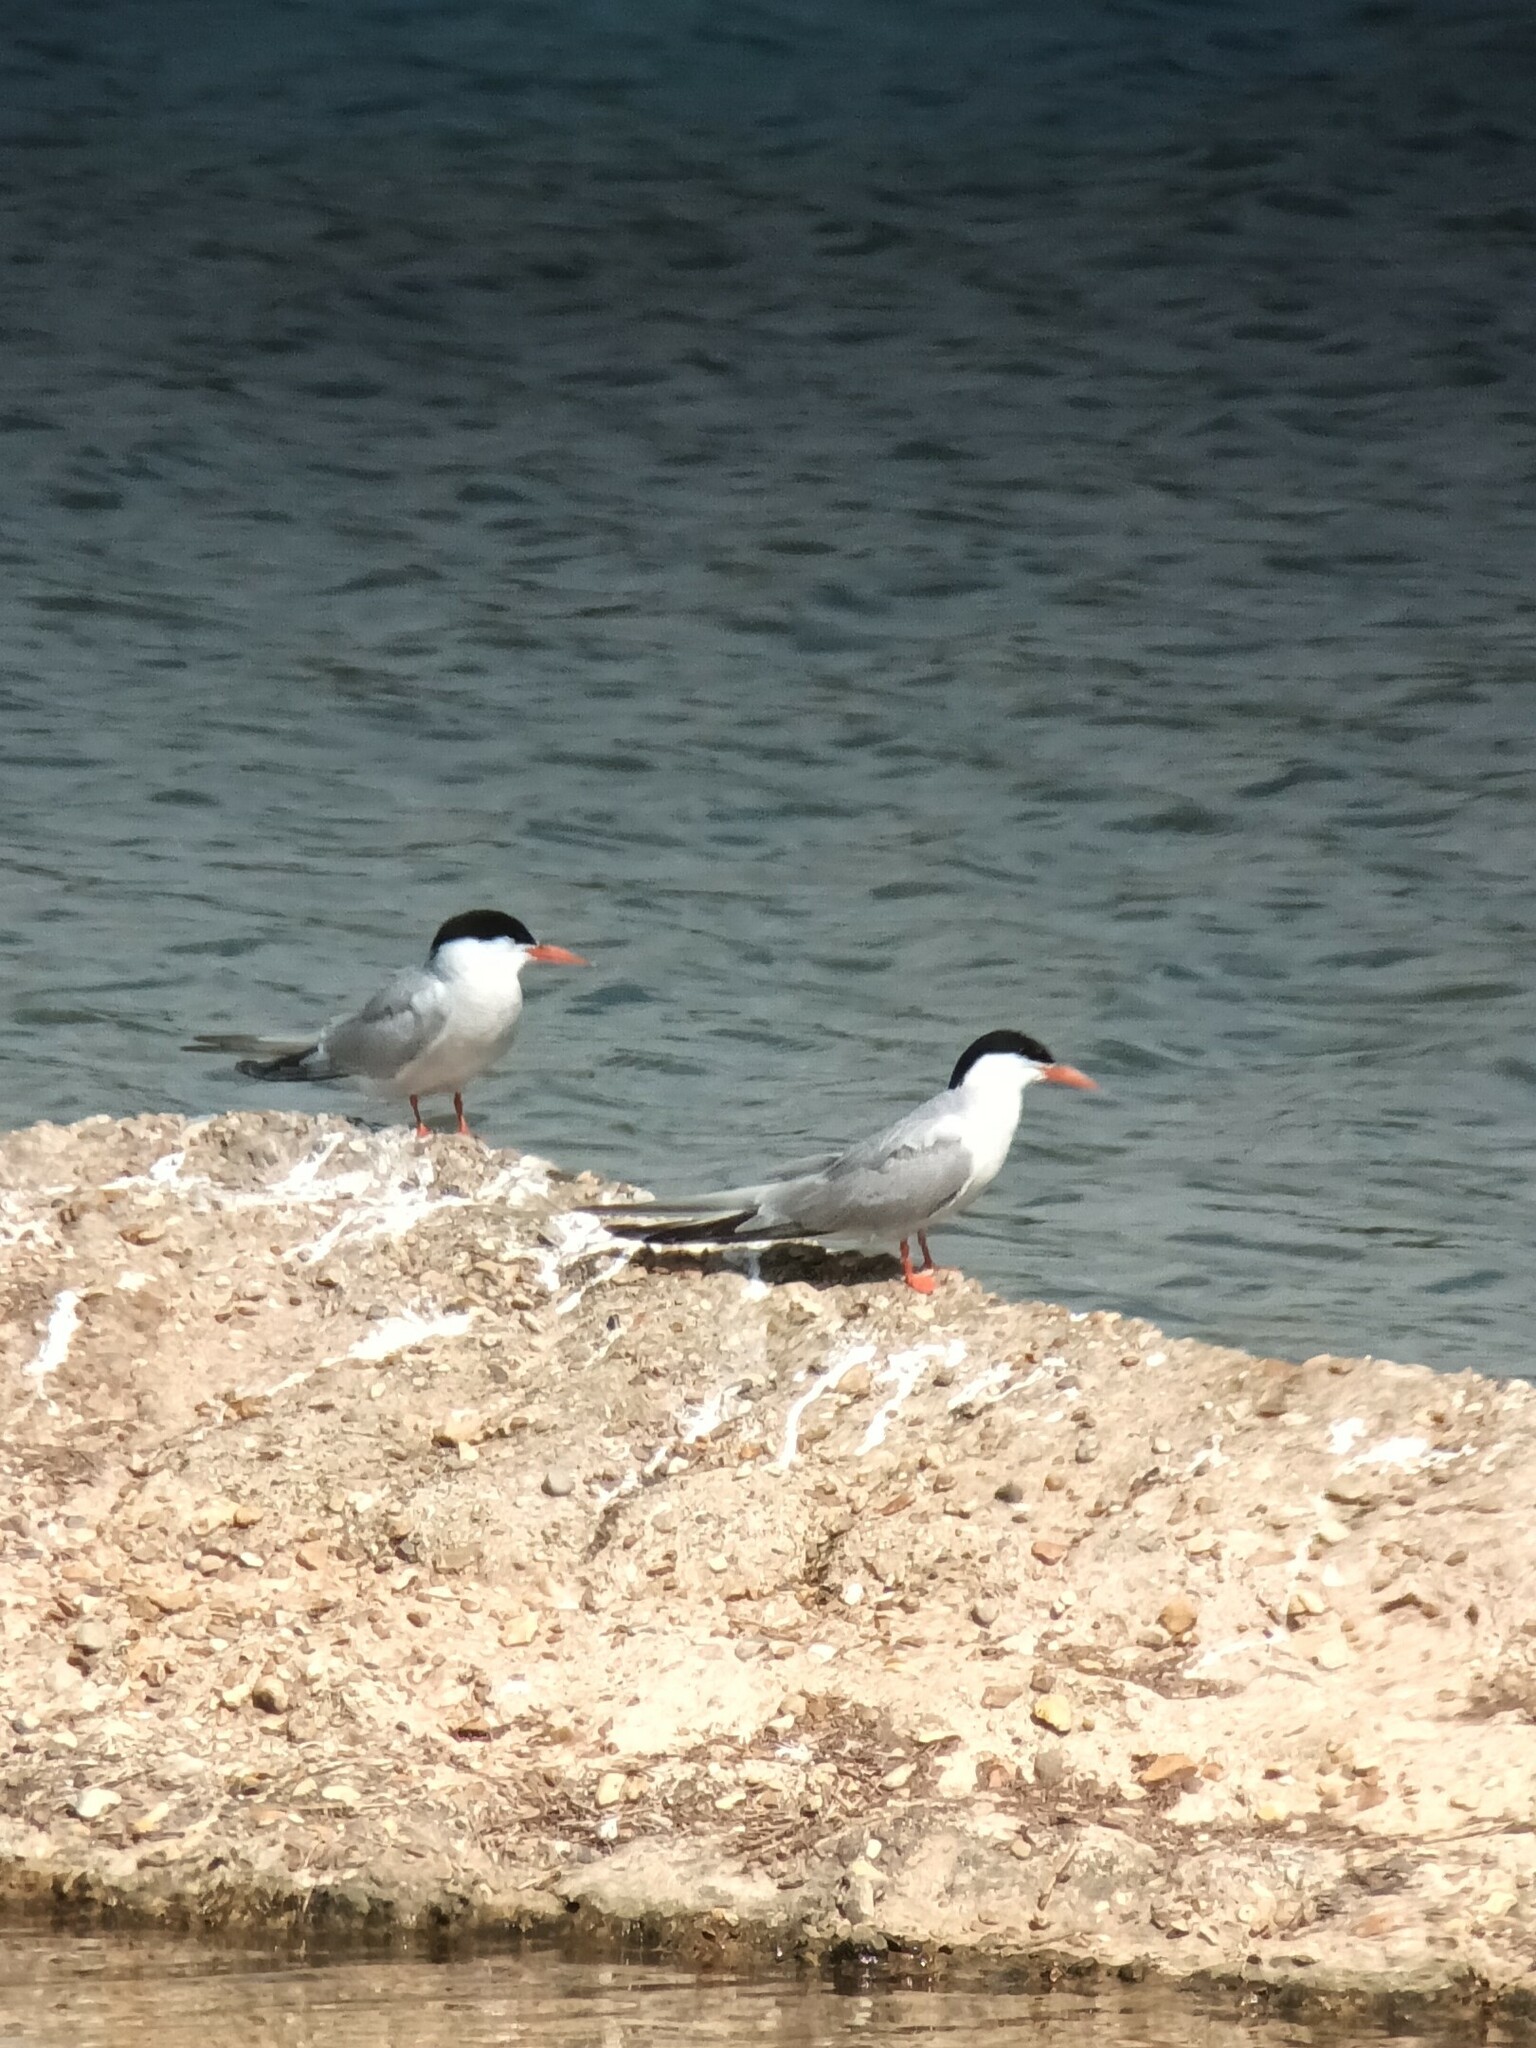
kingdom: Animalia
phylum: Chordata
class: Aves
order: Charadriiformes
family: Laridae
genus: Sterna
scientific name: Sterna hirundo
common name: Common tern
